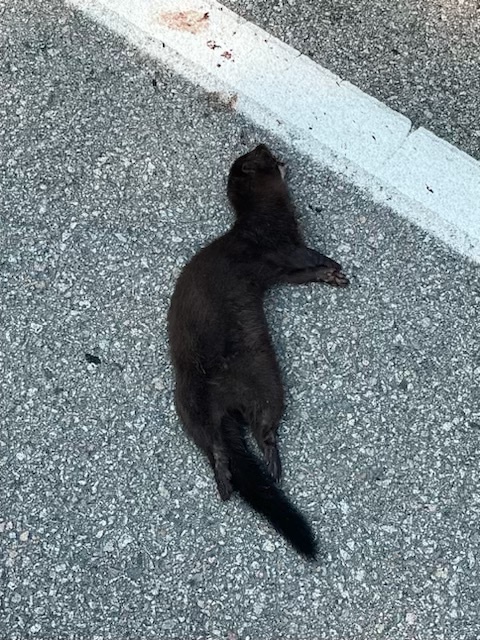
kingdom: Animalia
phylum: Chordata
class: Mammalia
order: Carnivora
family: Mustelidae
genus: Mustela
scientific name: Mustela
